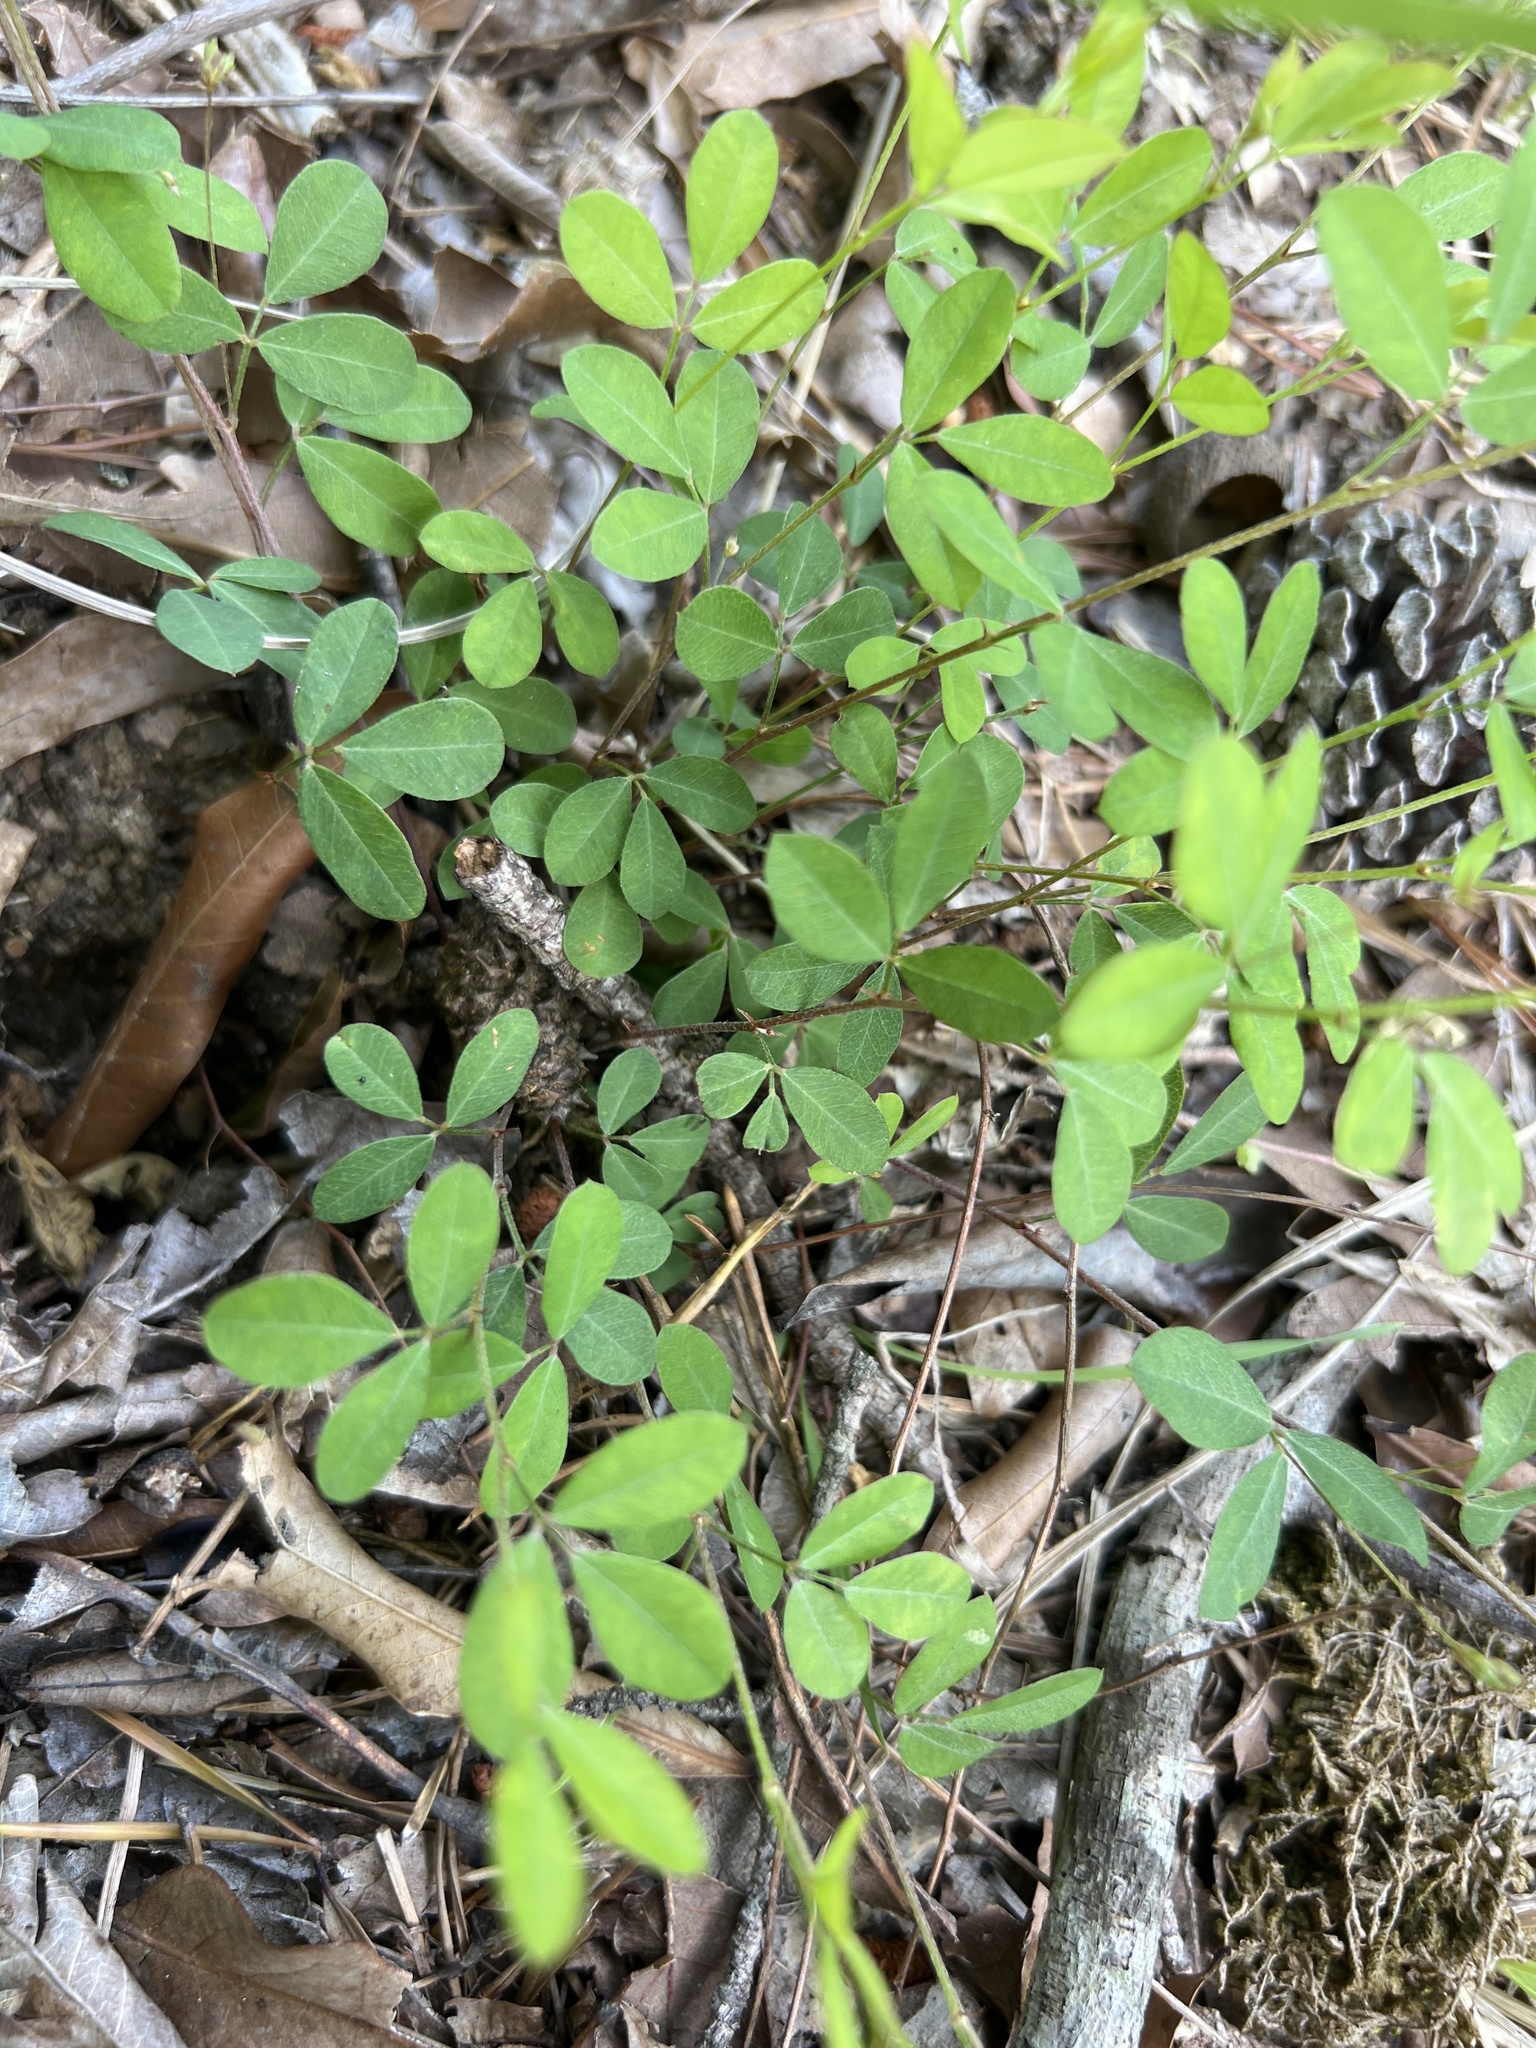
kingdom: Plantae
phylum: Tracheophyta
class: Magnoliopsida
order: Fabales
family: Fabaceae
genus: Lespedeza
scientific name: Lespedeza repens
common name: Creeping bush-clover
